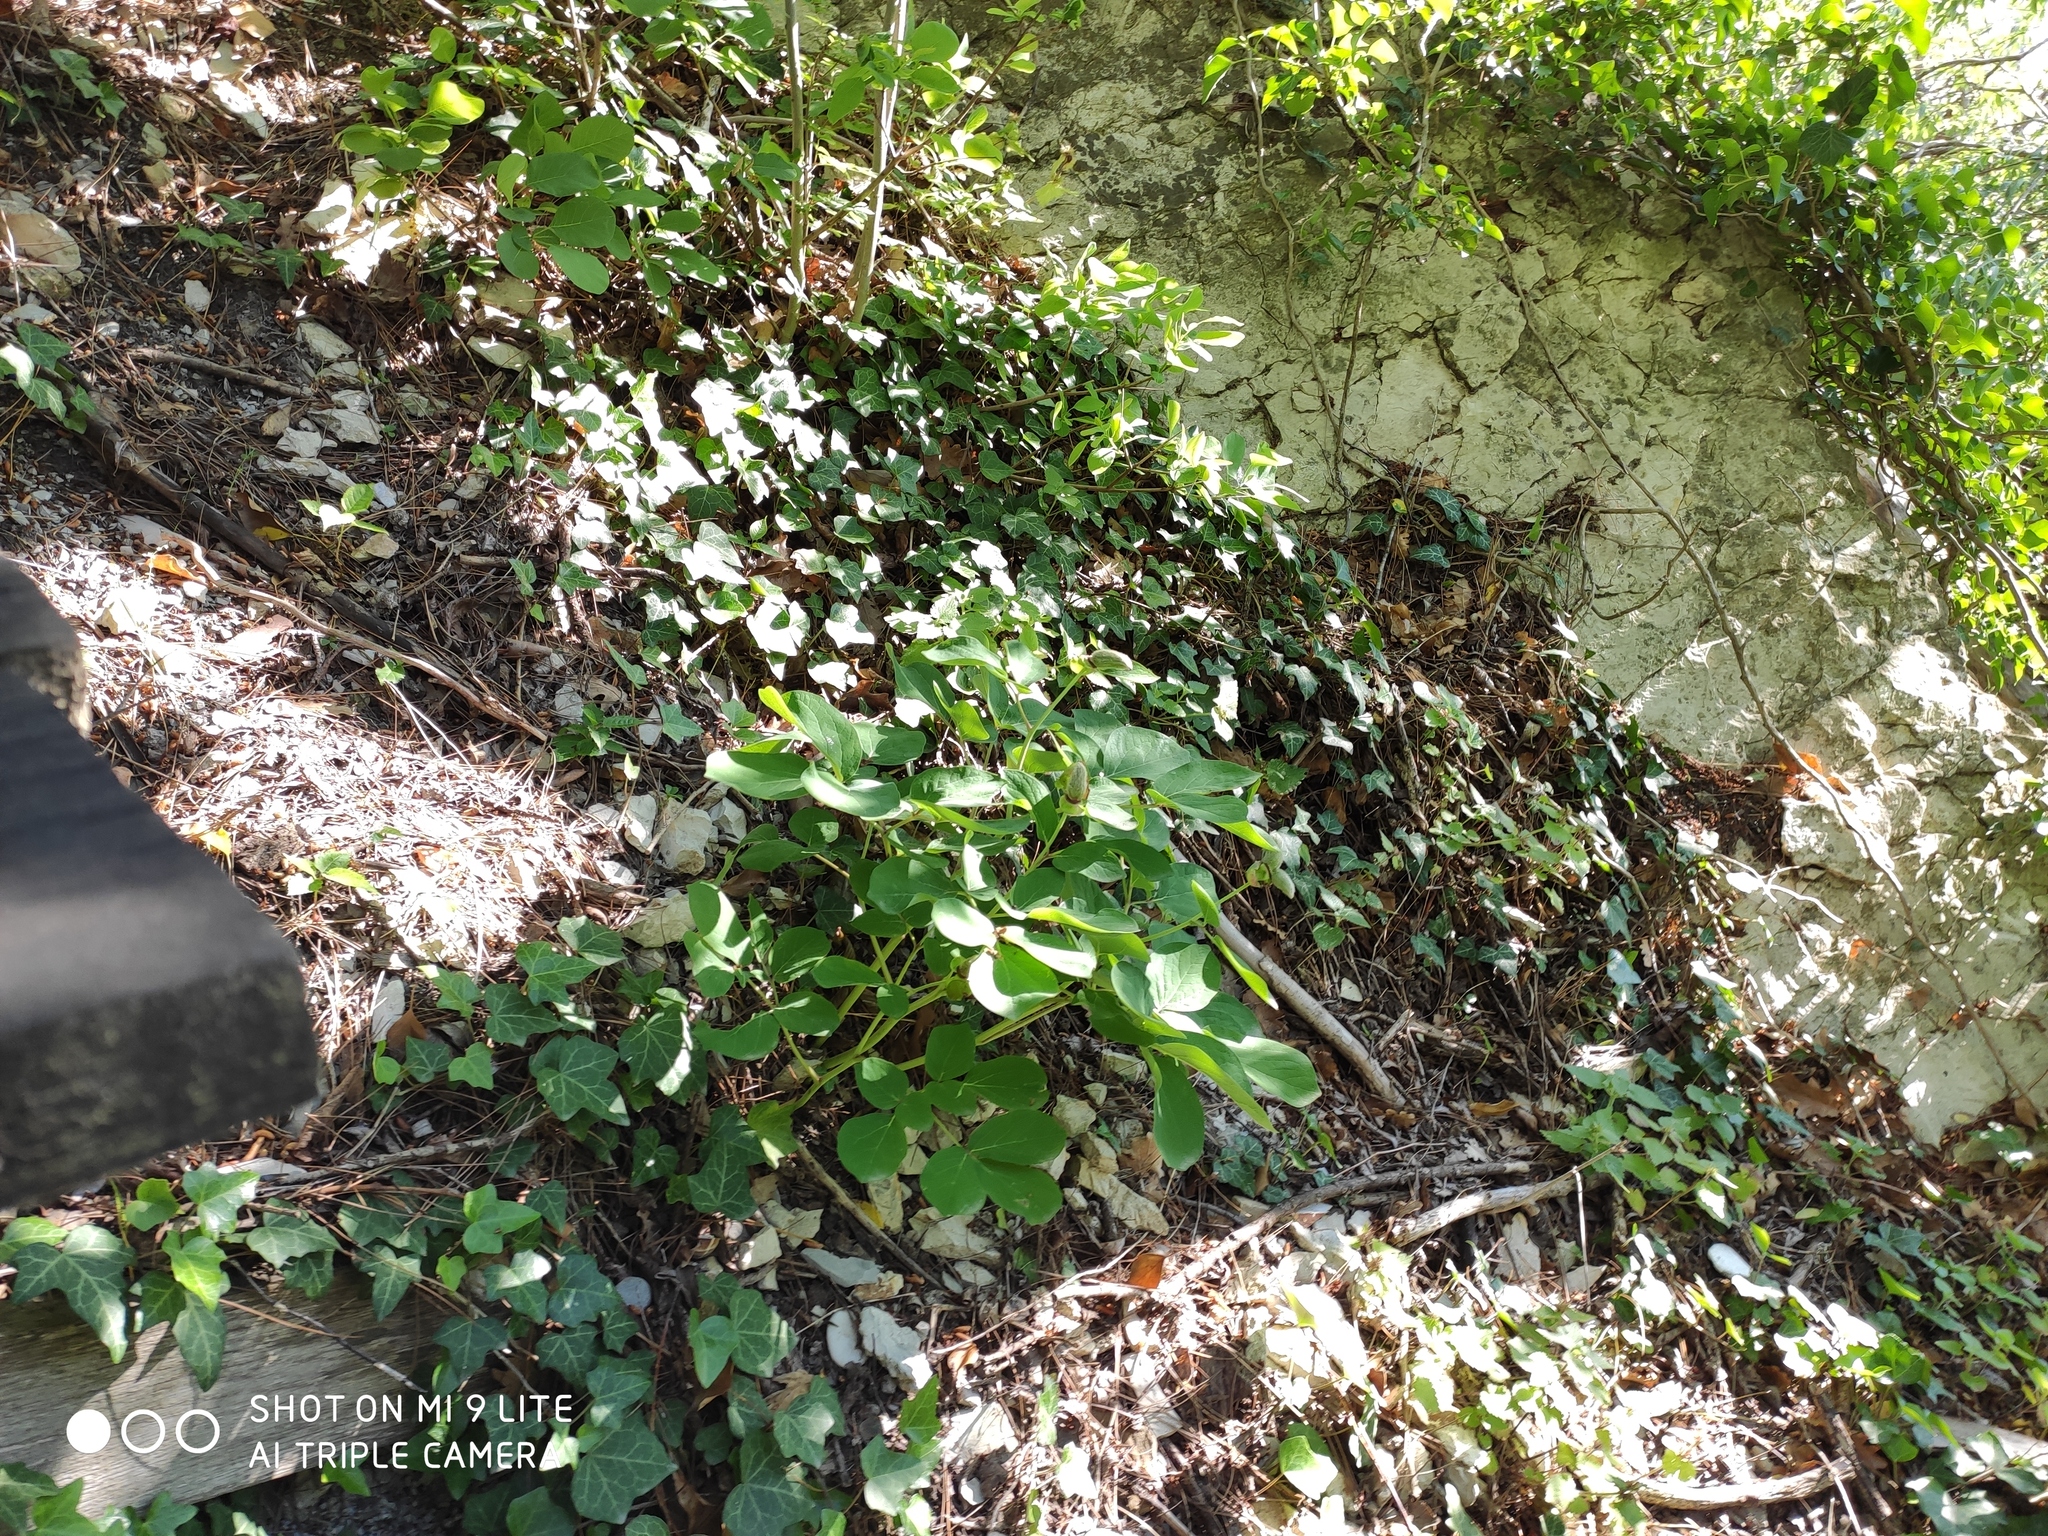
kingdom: Plantae
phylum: Tracheophyta
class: Magnoliopsida
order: Saxifragales
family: Paeoniaceae
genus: Paeonia
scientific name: Paeonia caucasica
